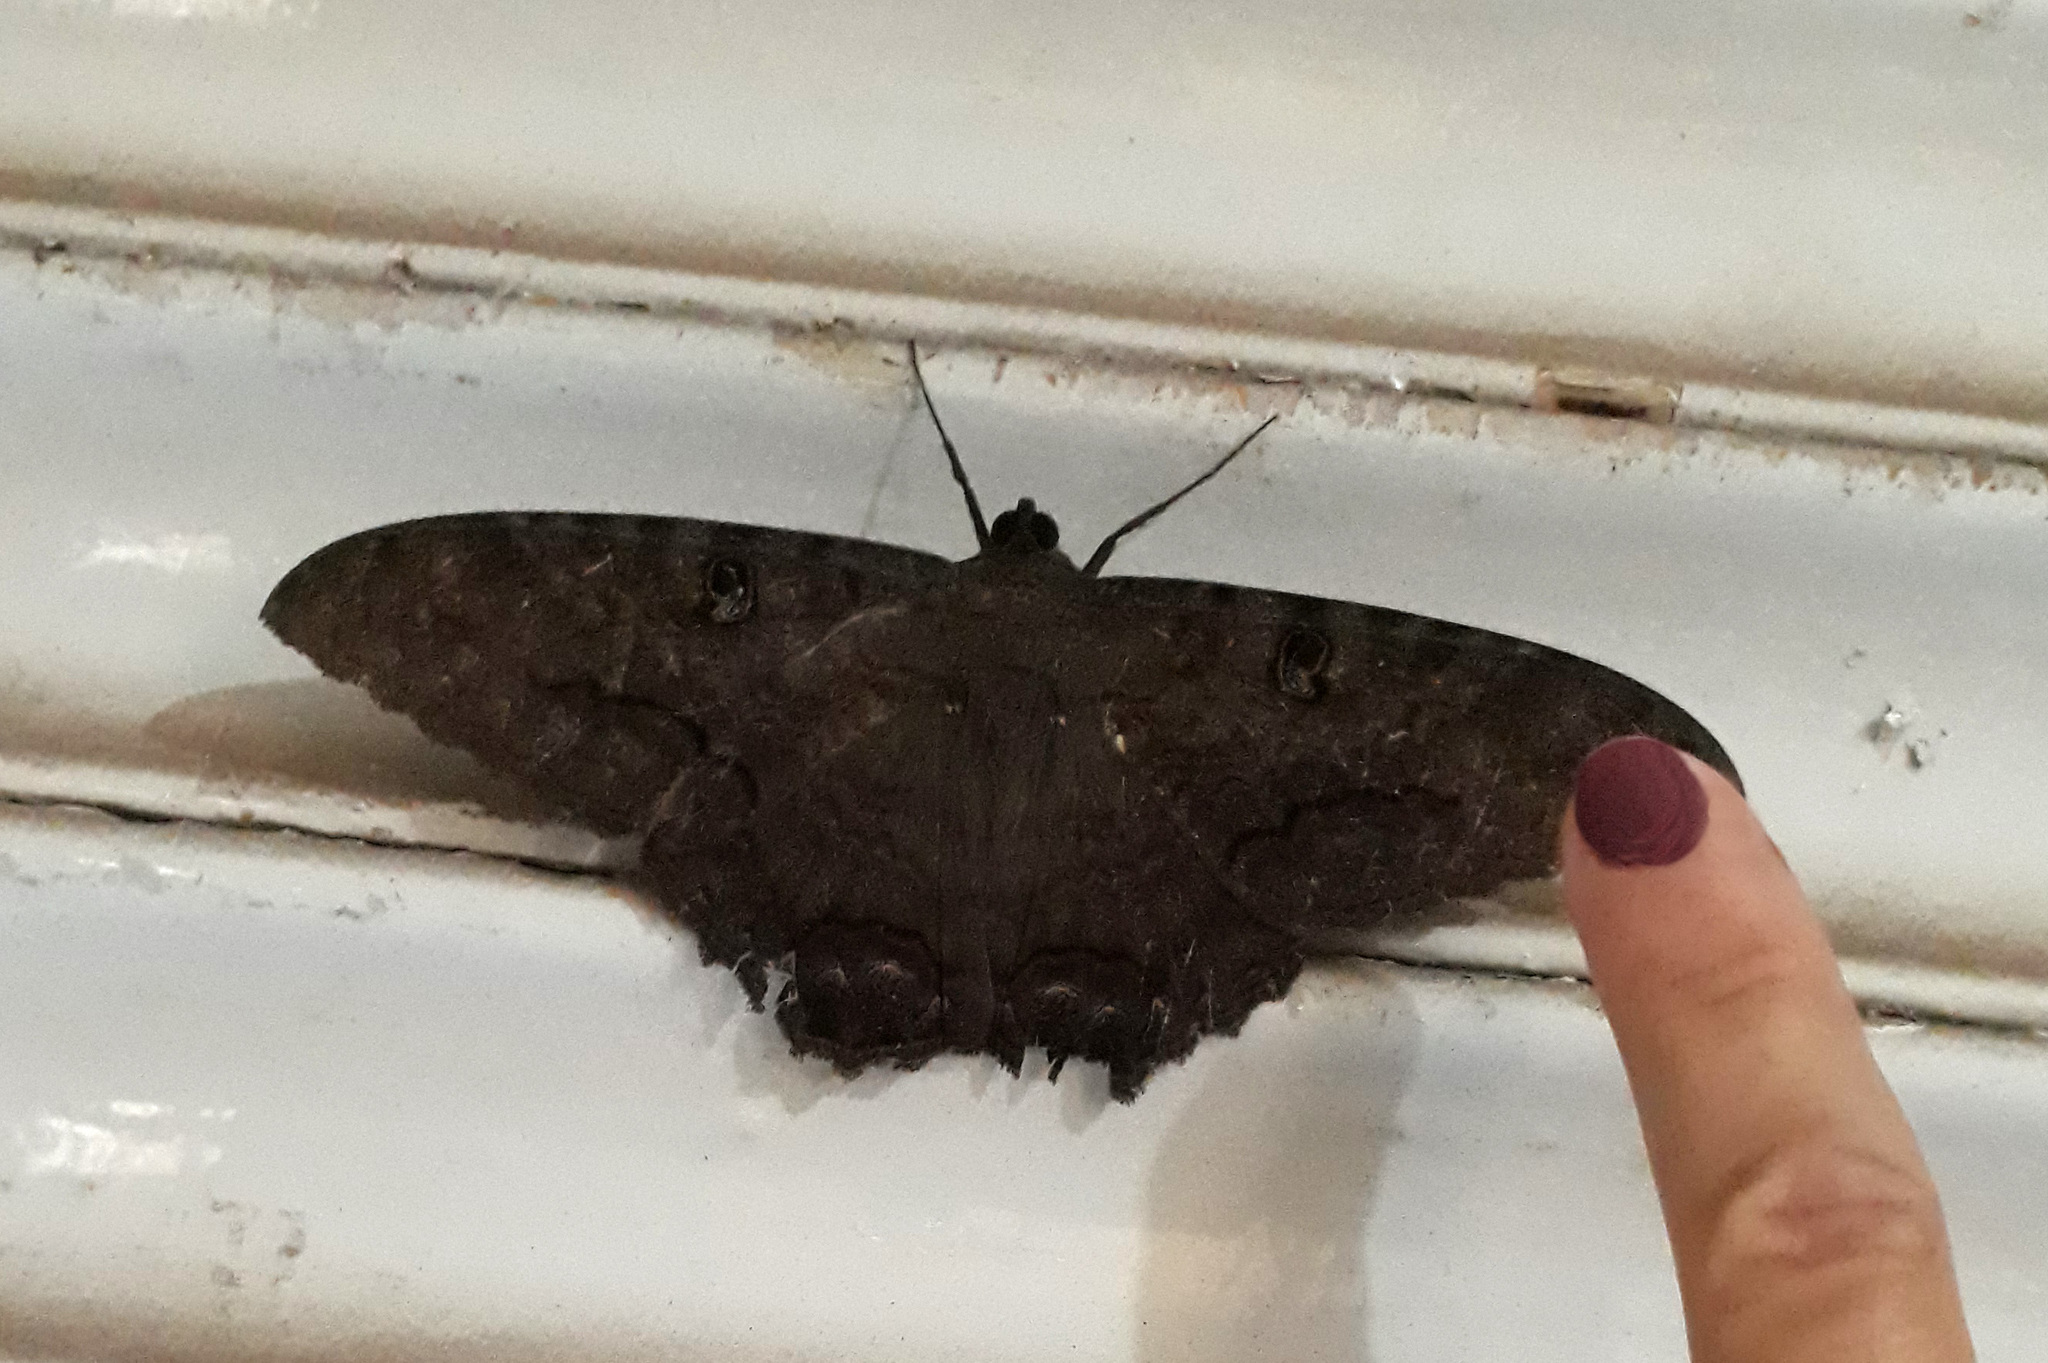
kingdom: Animalia
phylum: Arthropoda
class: Insecta
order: Lepidoptera
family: Erebidae
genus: Ascalapha
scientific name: Ascalapha odorata
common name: Black witch
